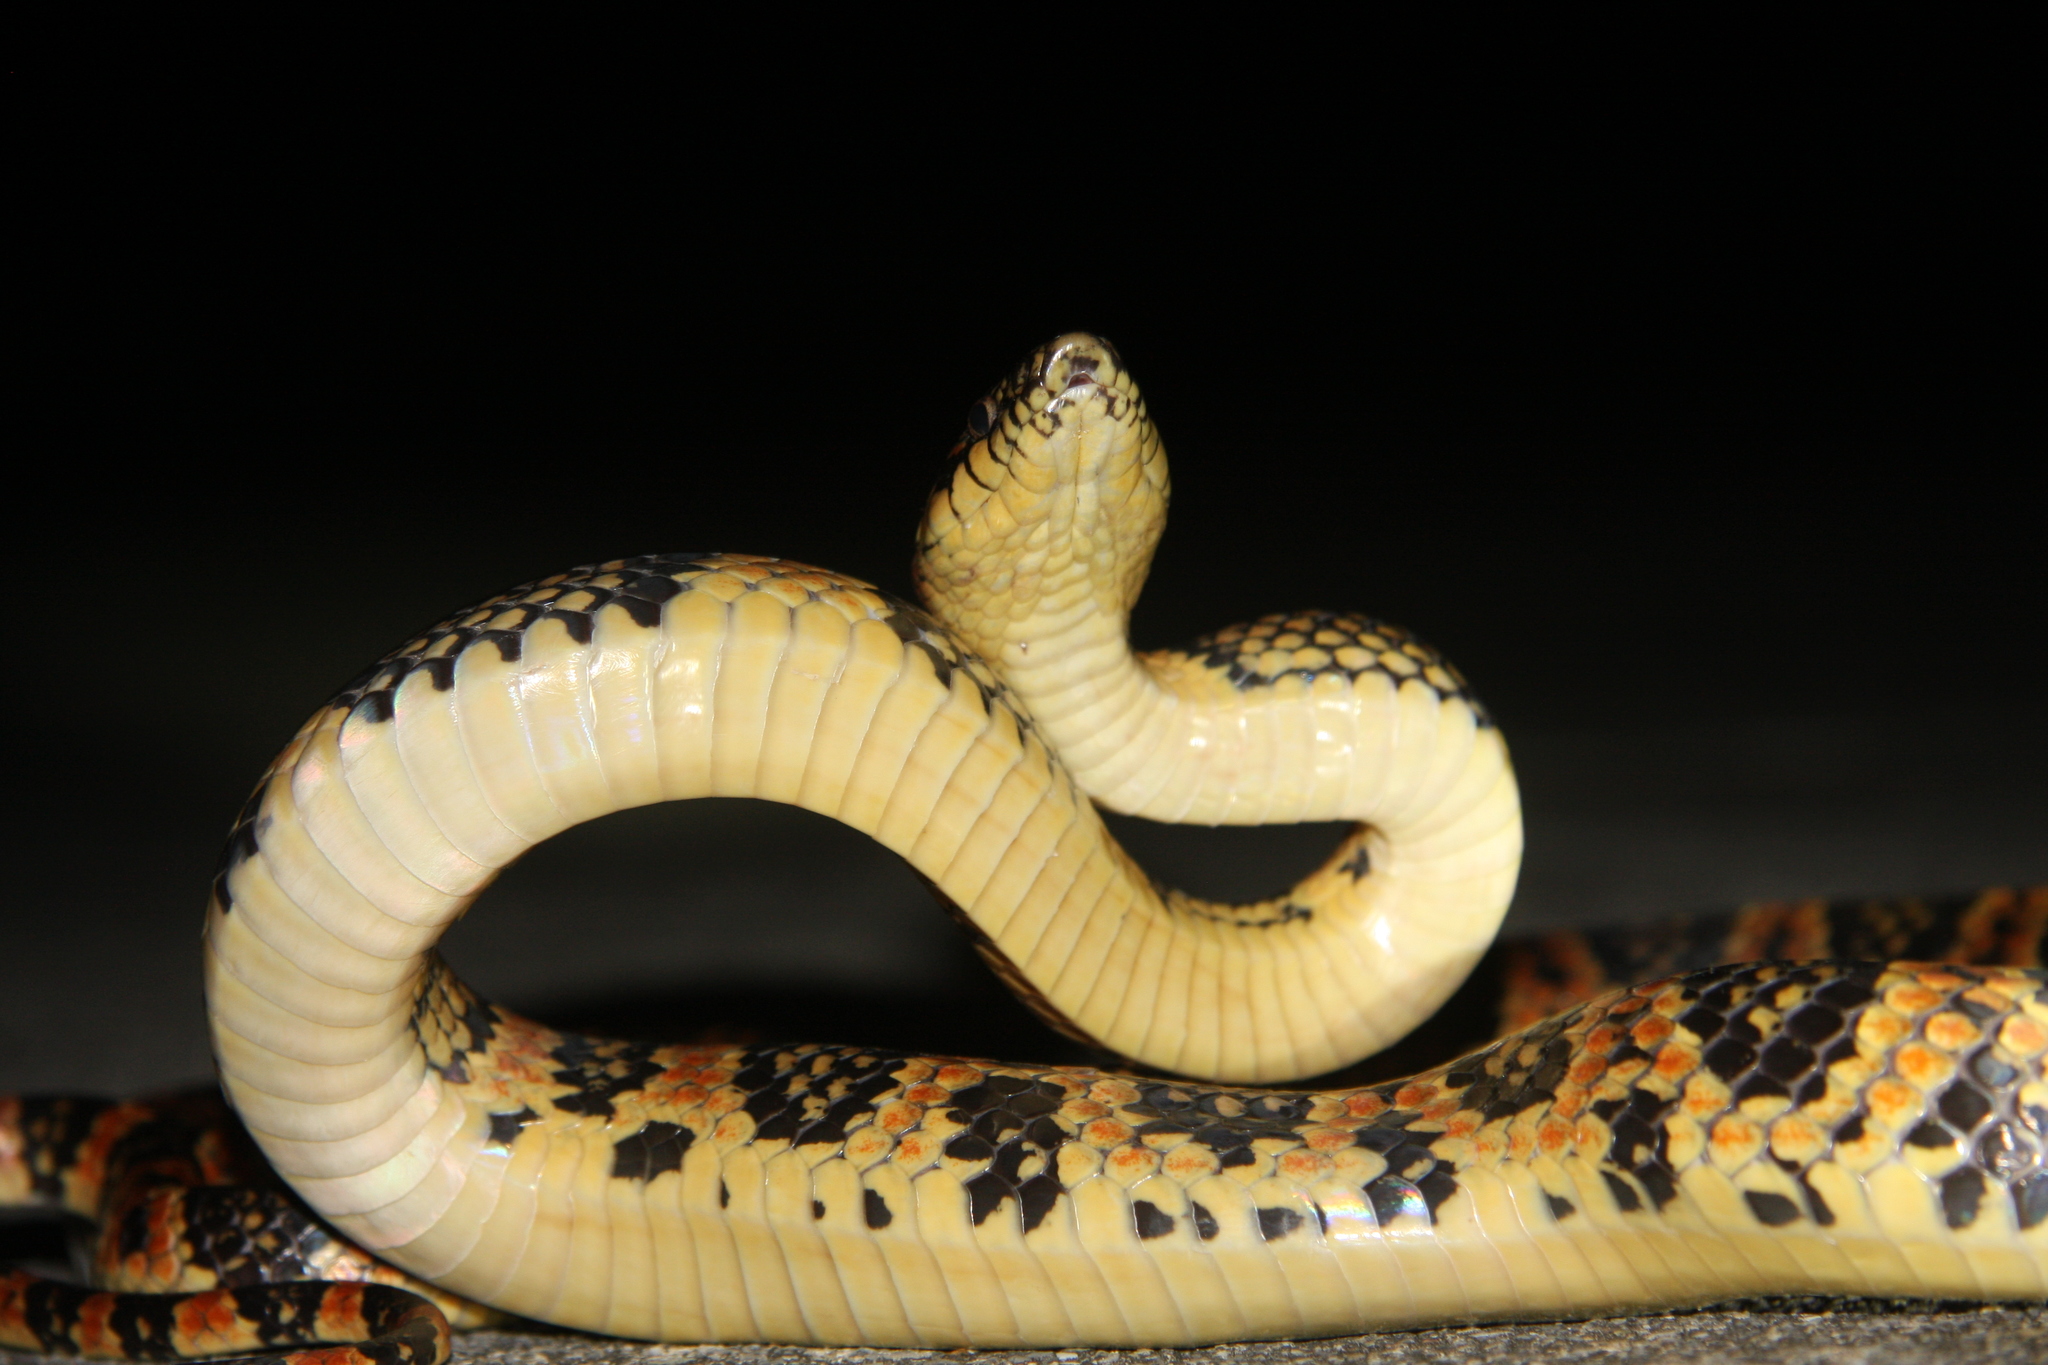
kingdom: Animalia
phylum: Chordata
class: Squamata
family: Colubridae
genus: Lycodon
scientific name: Lycodon semicarinatus
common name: Loo-choo big-tooth snake
